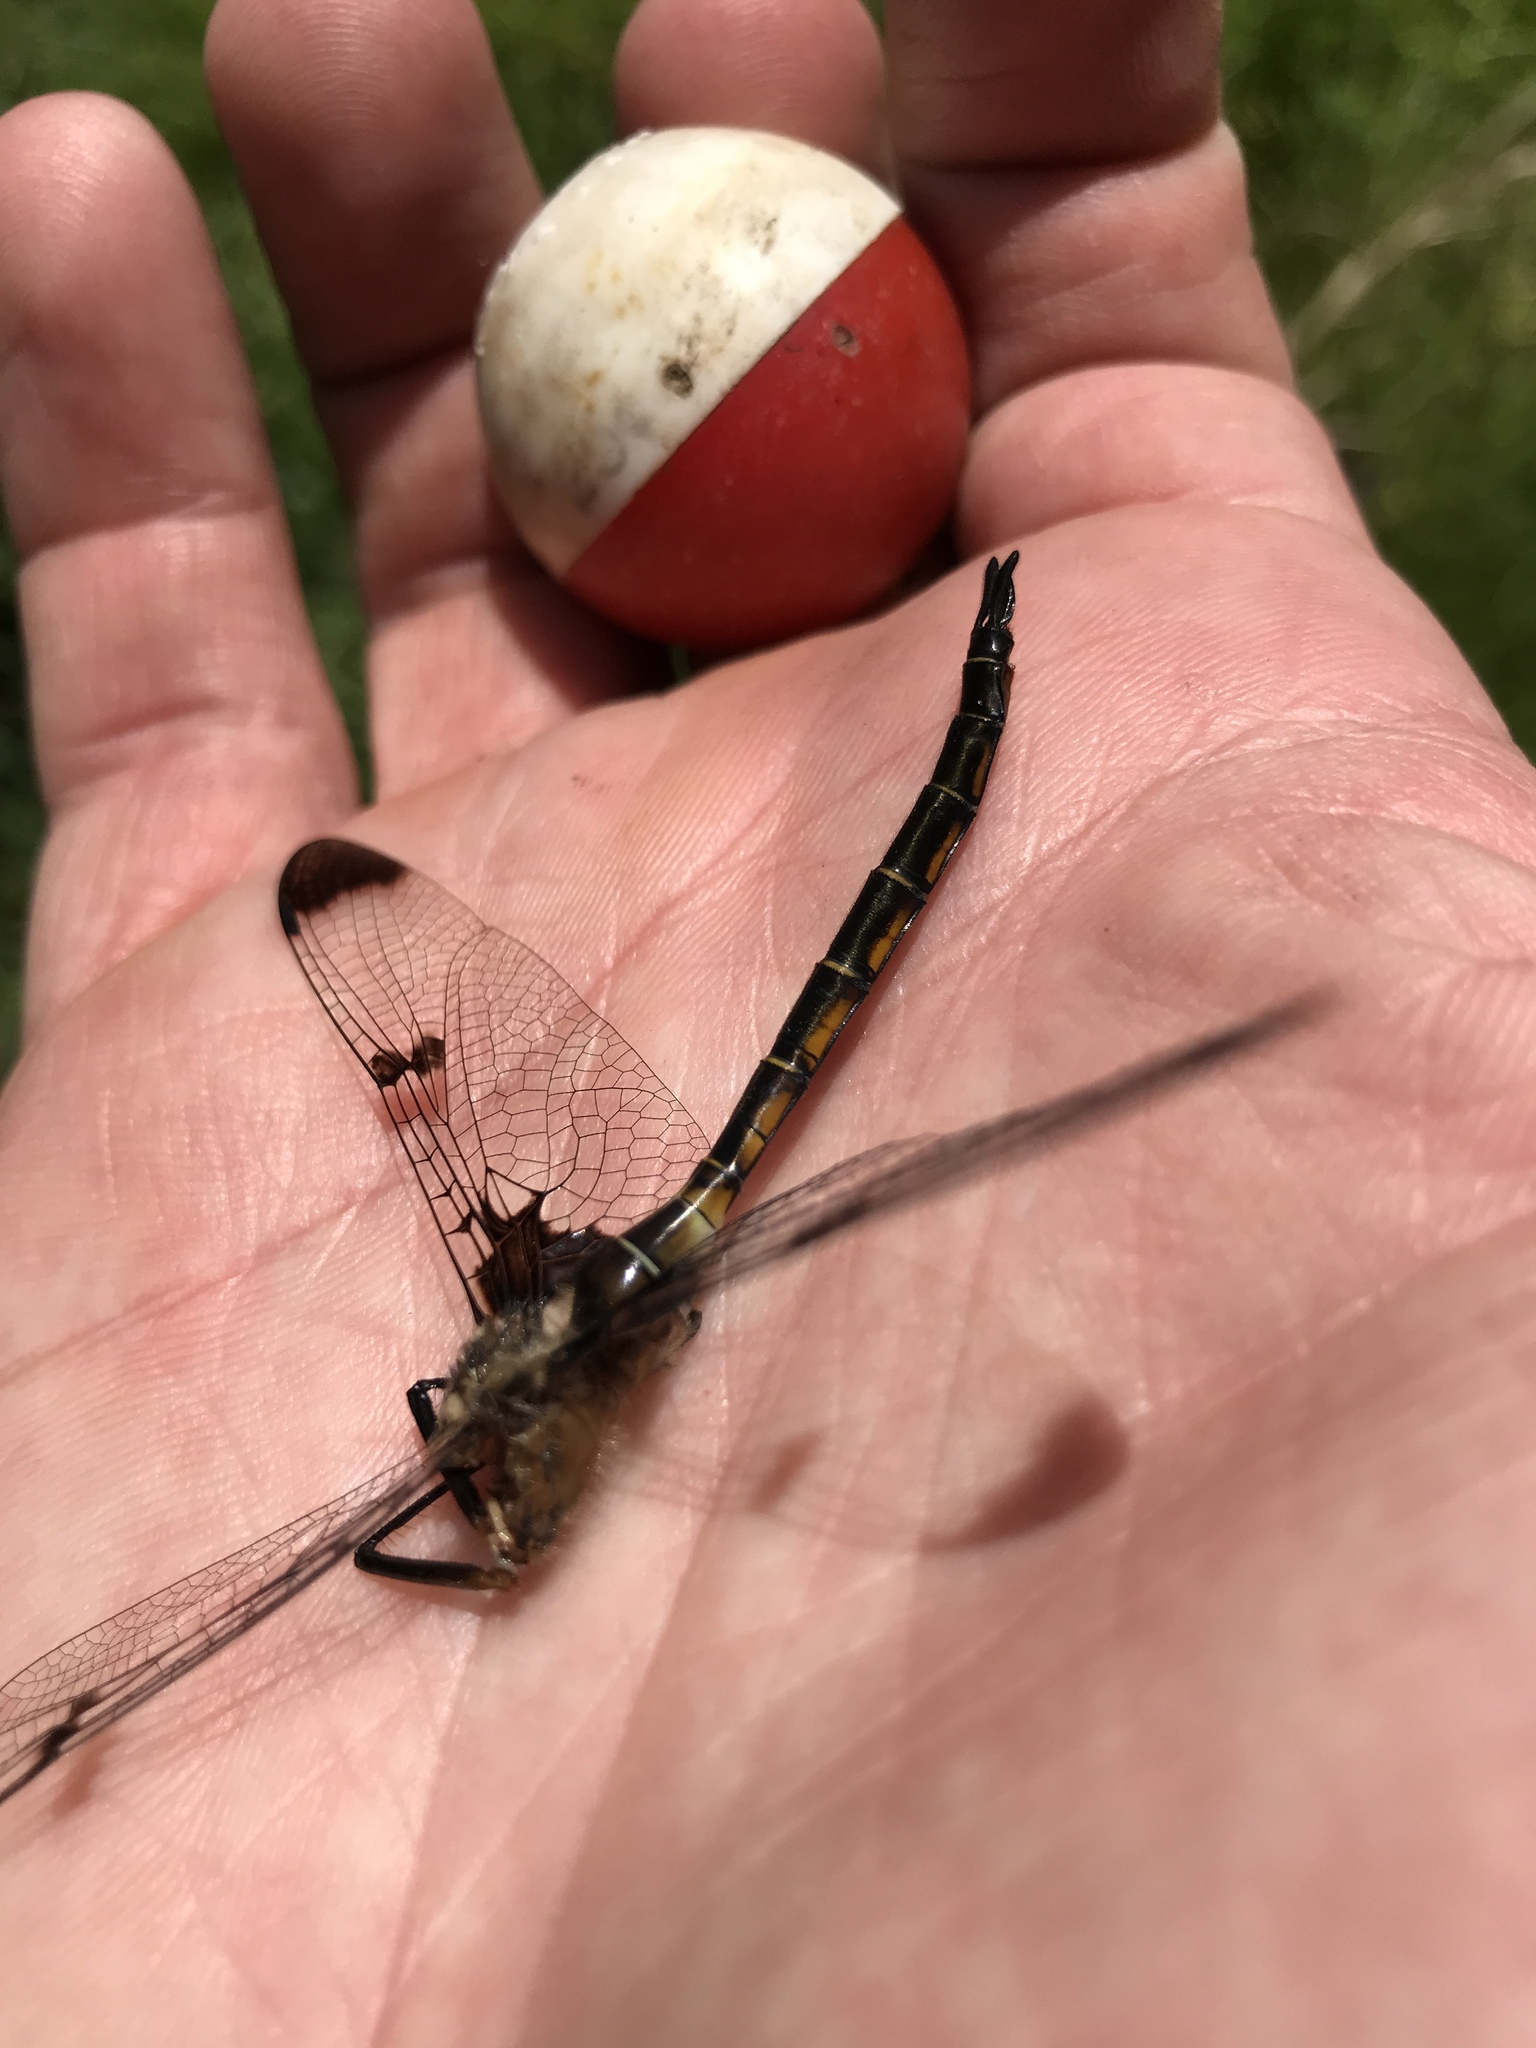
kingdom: Animalia
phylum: Arthropoda
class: Insecta
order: Odonata
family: Corduliidae
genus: Epitheca
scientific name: Epitheca princeps
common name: Prince baskettail
